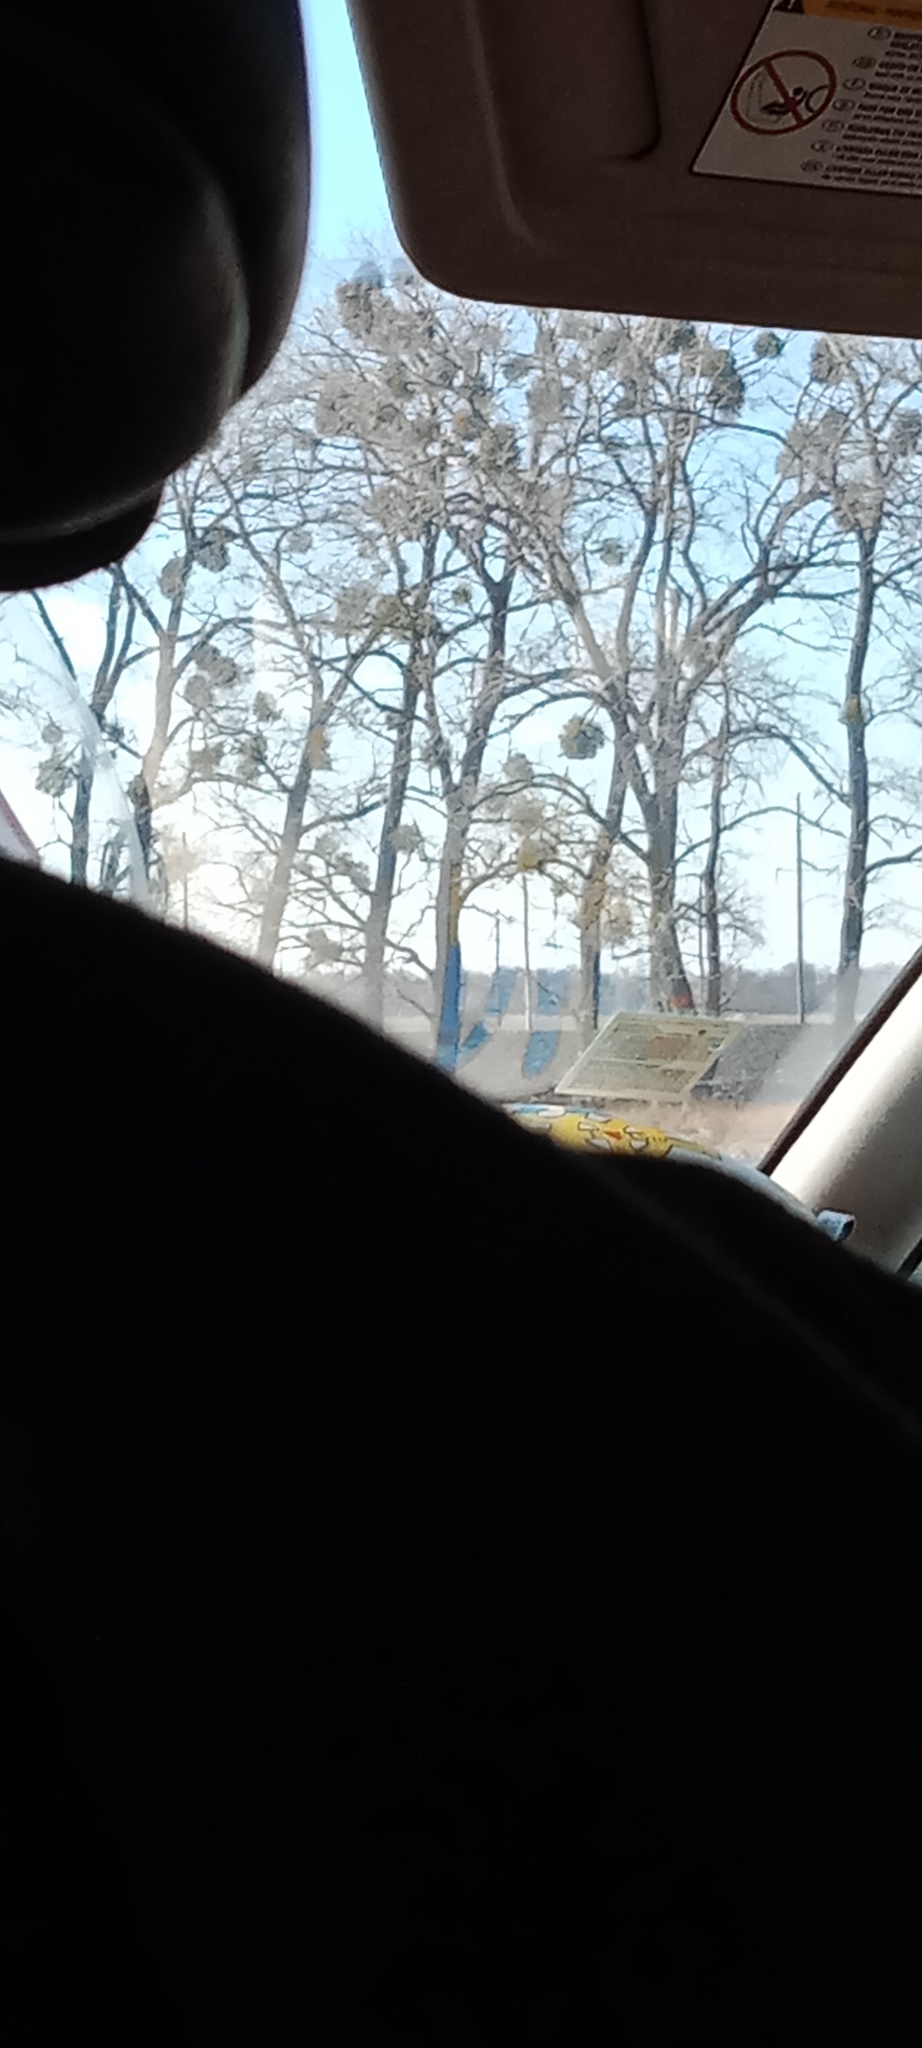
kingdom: Plantae
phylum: Tracheophyta
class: Magnoliopsida
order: Santalales
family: Viscaceae
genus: Viscum
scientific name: Viscum album
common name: Mistletoe
